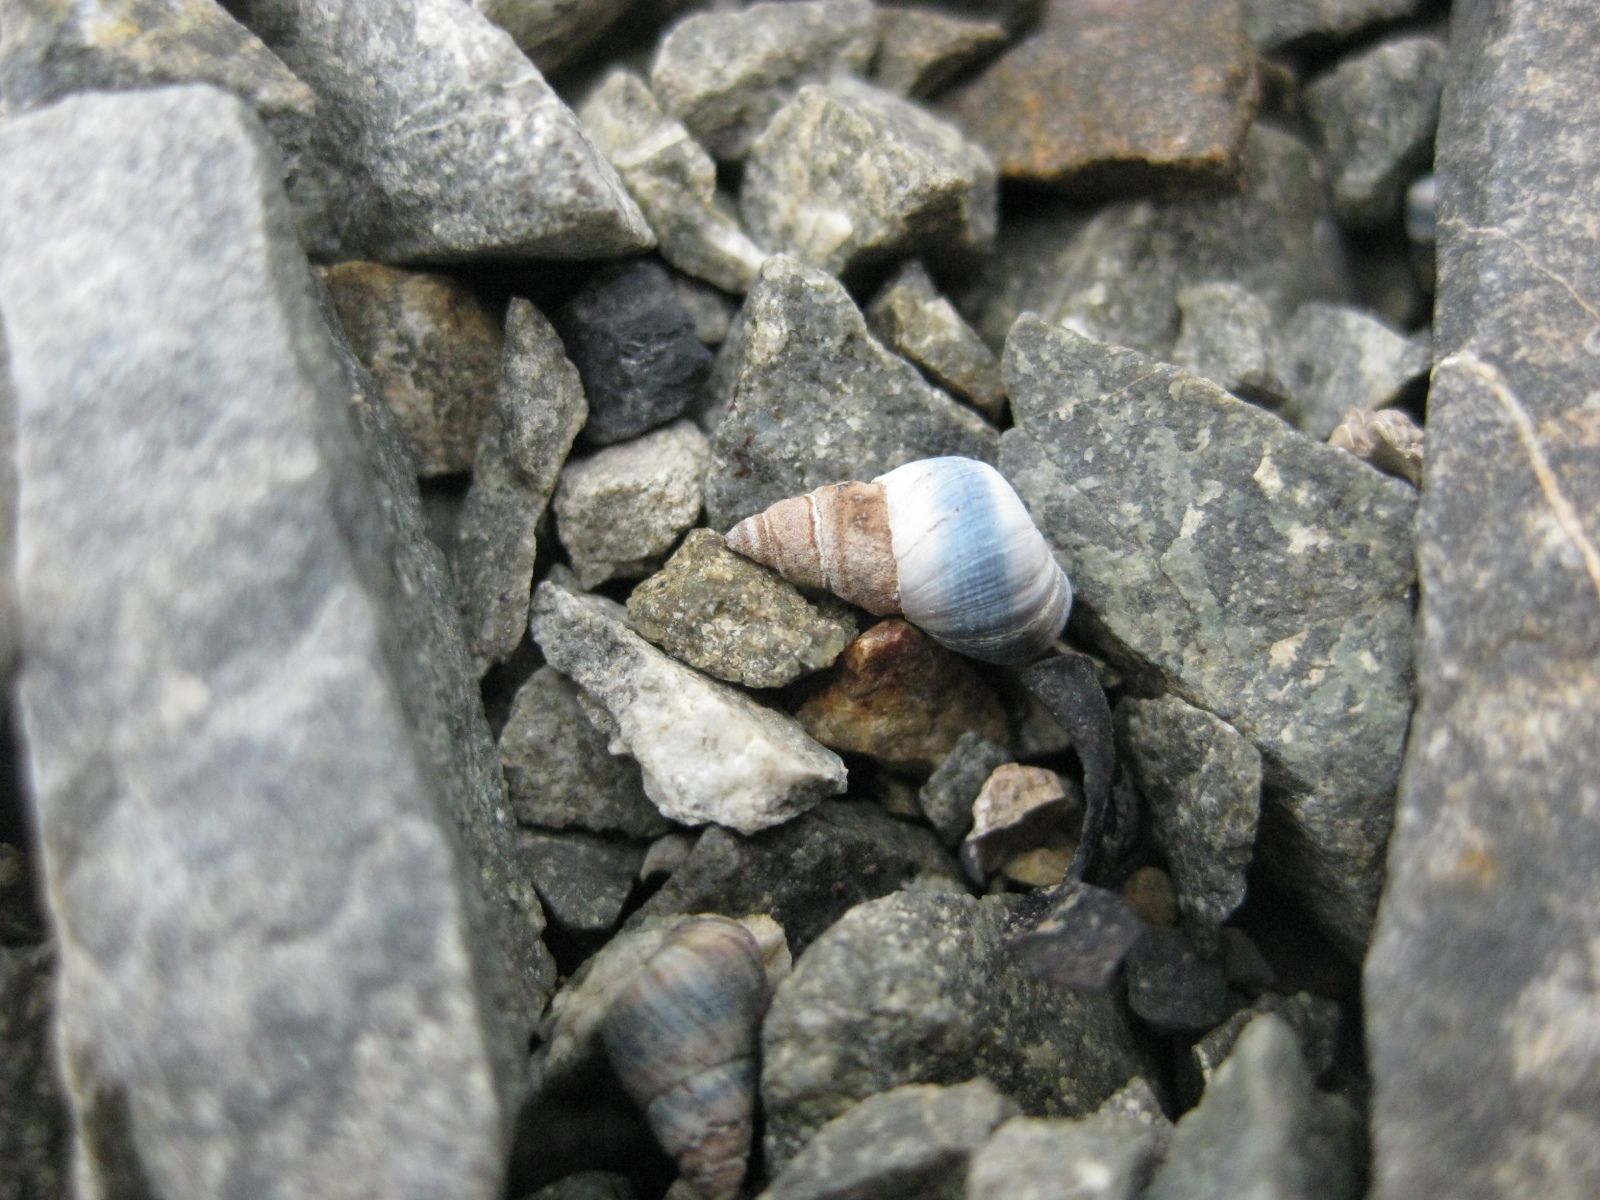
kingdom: Animalia
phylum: Mollusca
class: Gastropoda
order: Littorinimorpha
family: Littorinidae
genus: Austrolittorina
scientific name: Austrolittorina antipodum
